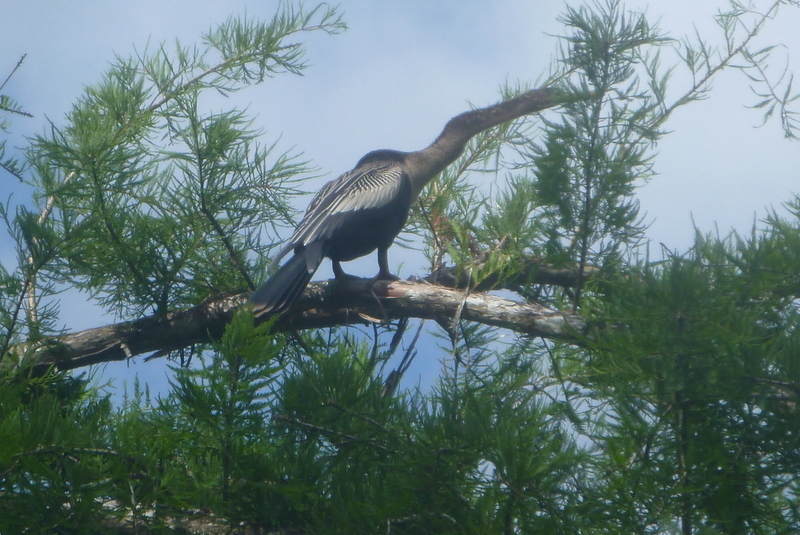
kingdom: Animalia
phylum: Chordata
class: Aves
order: Suliformes
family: Anhingidae
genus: Anhinga
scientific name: Anhinga anhinga
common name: Anhinga
